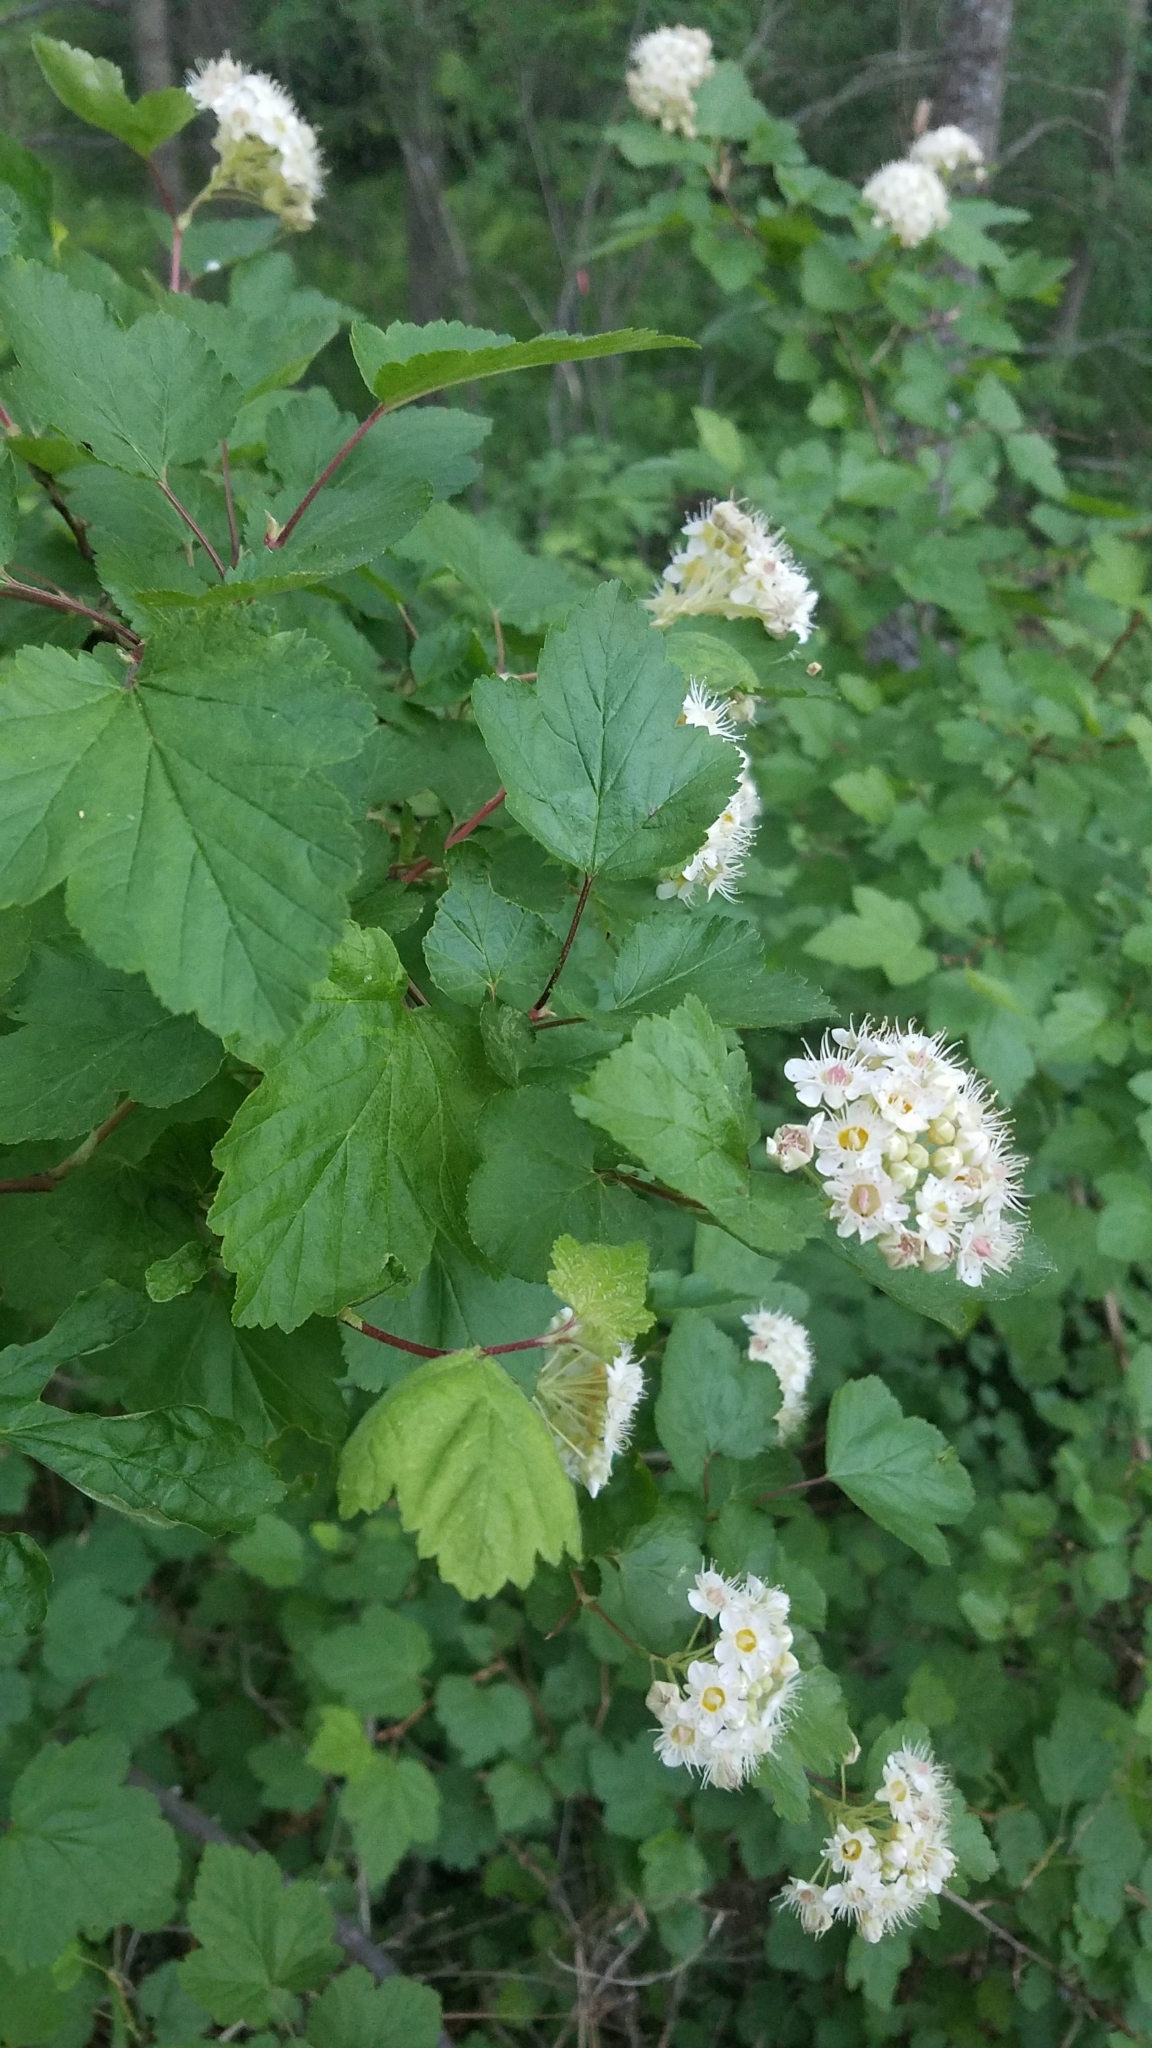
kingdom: Plantae
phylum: Tracheophyta
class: Magnoliopsida
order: Rosales
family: Rosaceae
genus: Physocarpus
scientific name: Physocarpus malvaceus
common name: Mallow ninebark
